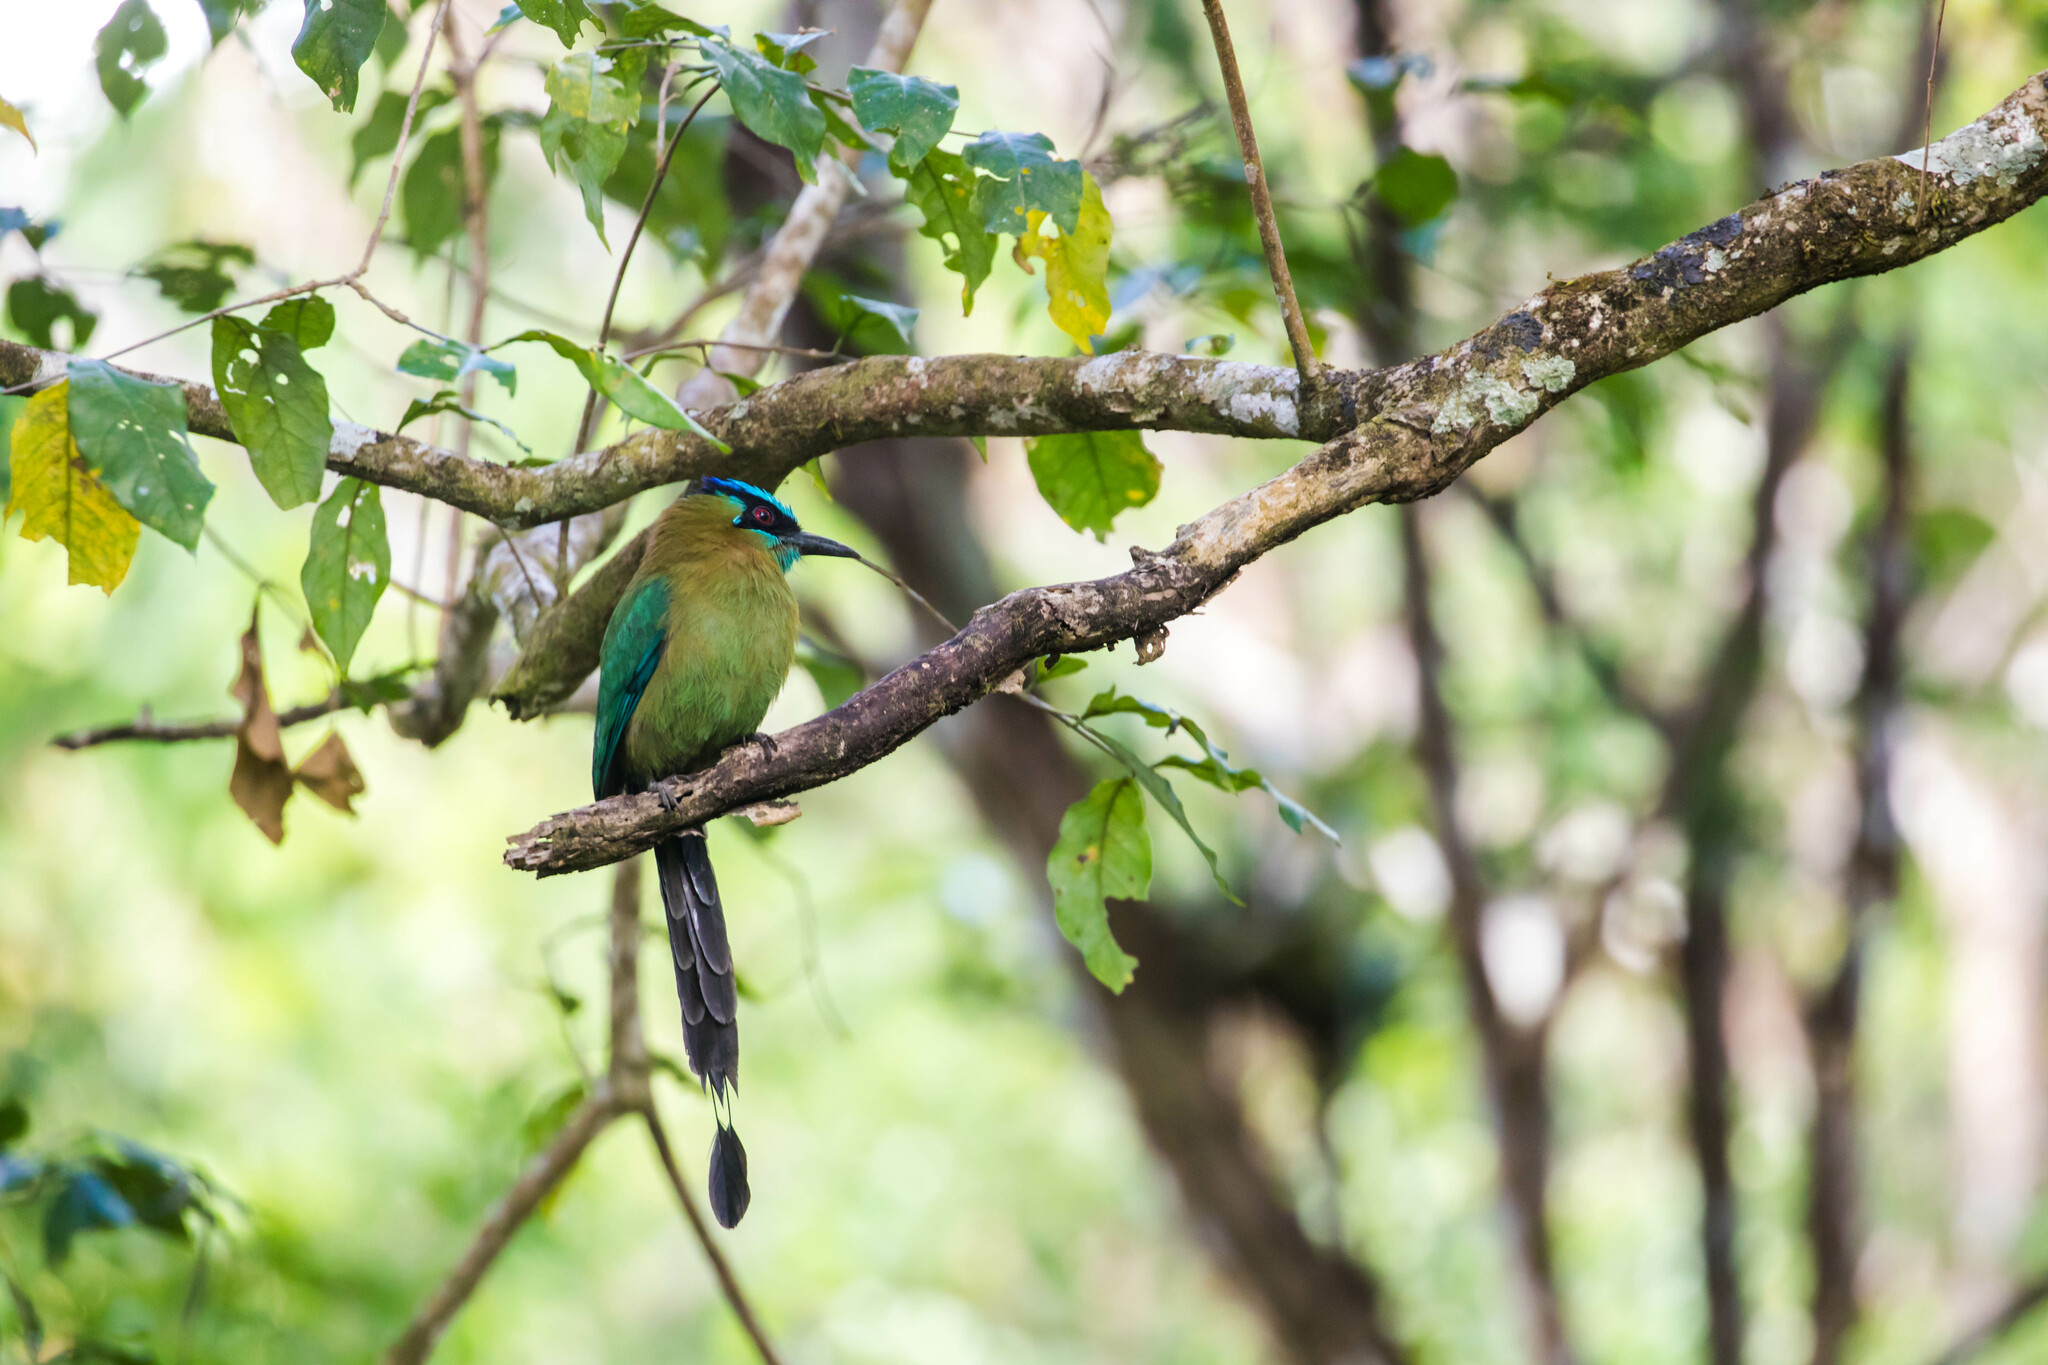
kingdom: Animalia
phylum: Chordata
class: Aves
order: Coraciiformes
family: Momotidae
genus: Momotus
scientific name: Momotus lessonii
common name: Lesson's motmot
